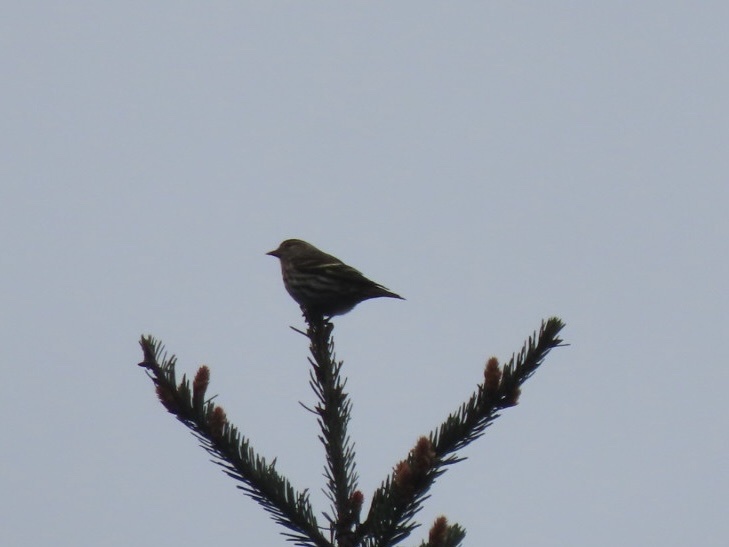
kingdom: Animalia
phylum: Chordata
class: Aves
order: Passeriformes
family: Fringillidae
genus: Spinus
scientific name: Spinus pinus
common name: Pine siskin
